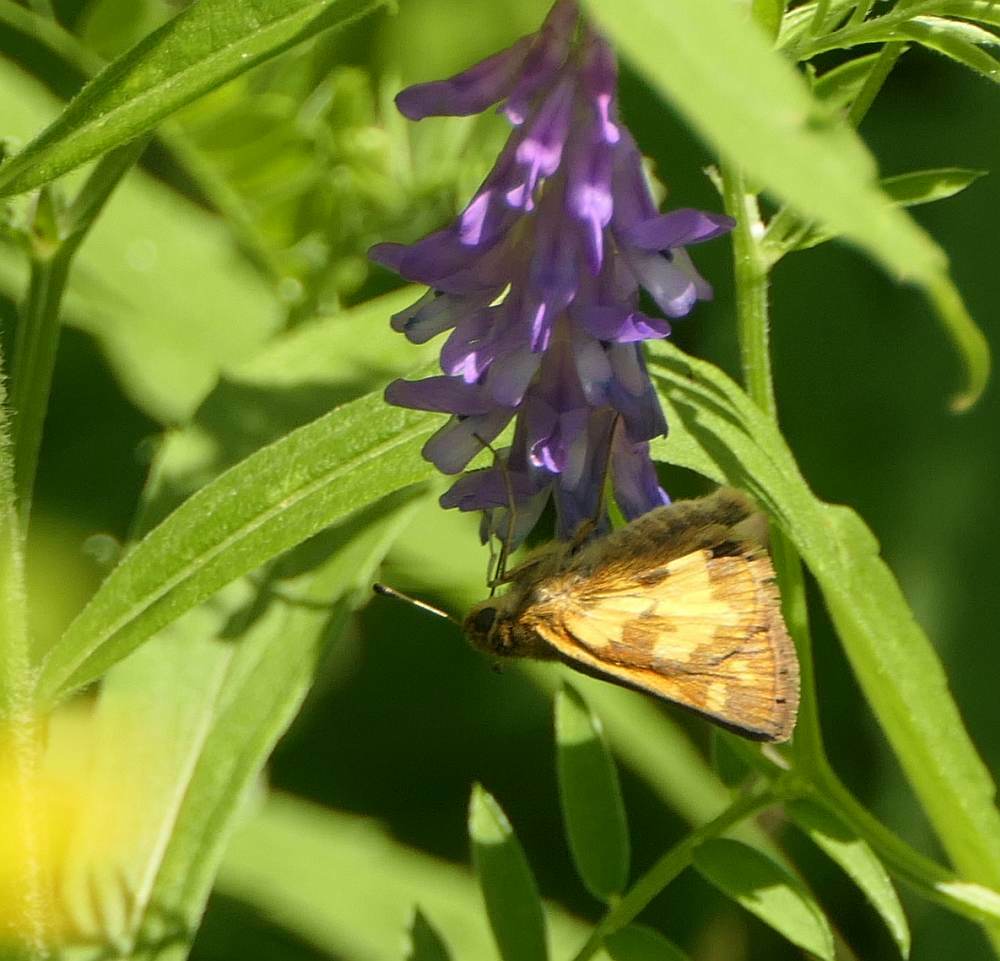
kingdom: Animalia
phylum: Arthropoda
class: Insecta
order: Lepidoptera
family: Hesperiidae
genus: Polites
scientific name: Polites coras
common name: Peck's skipper
